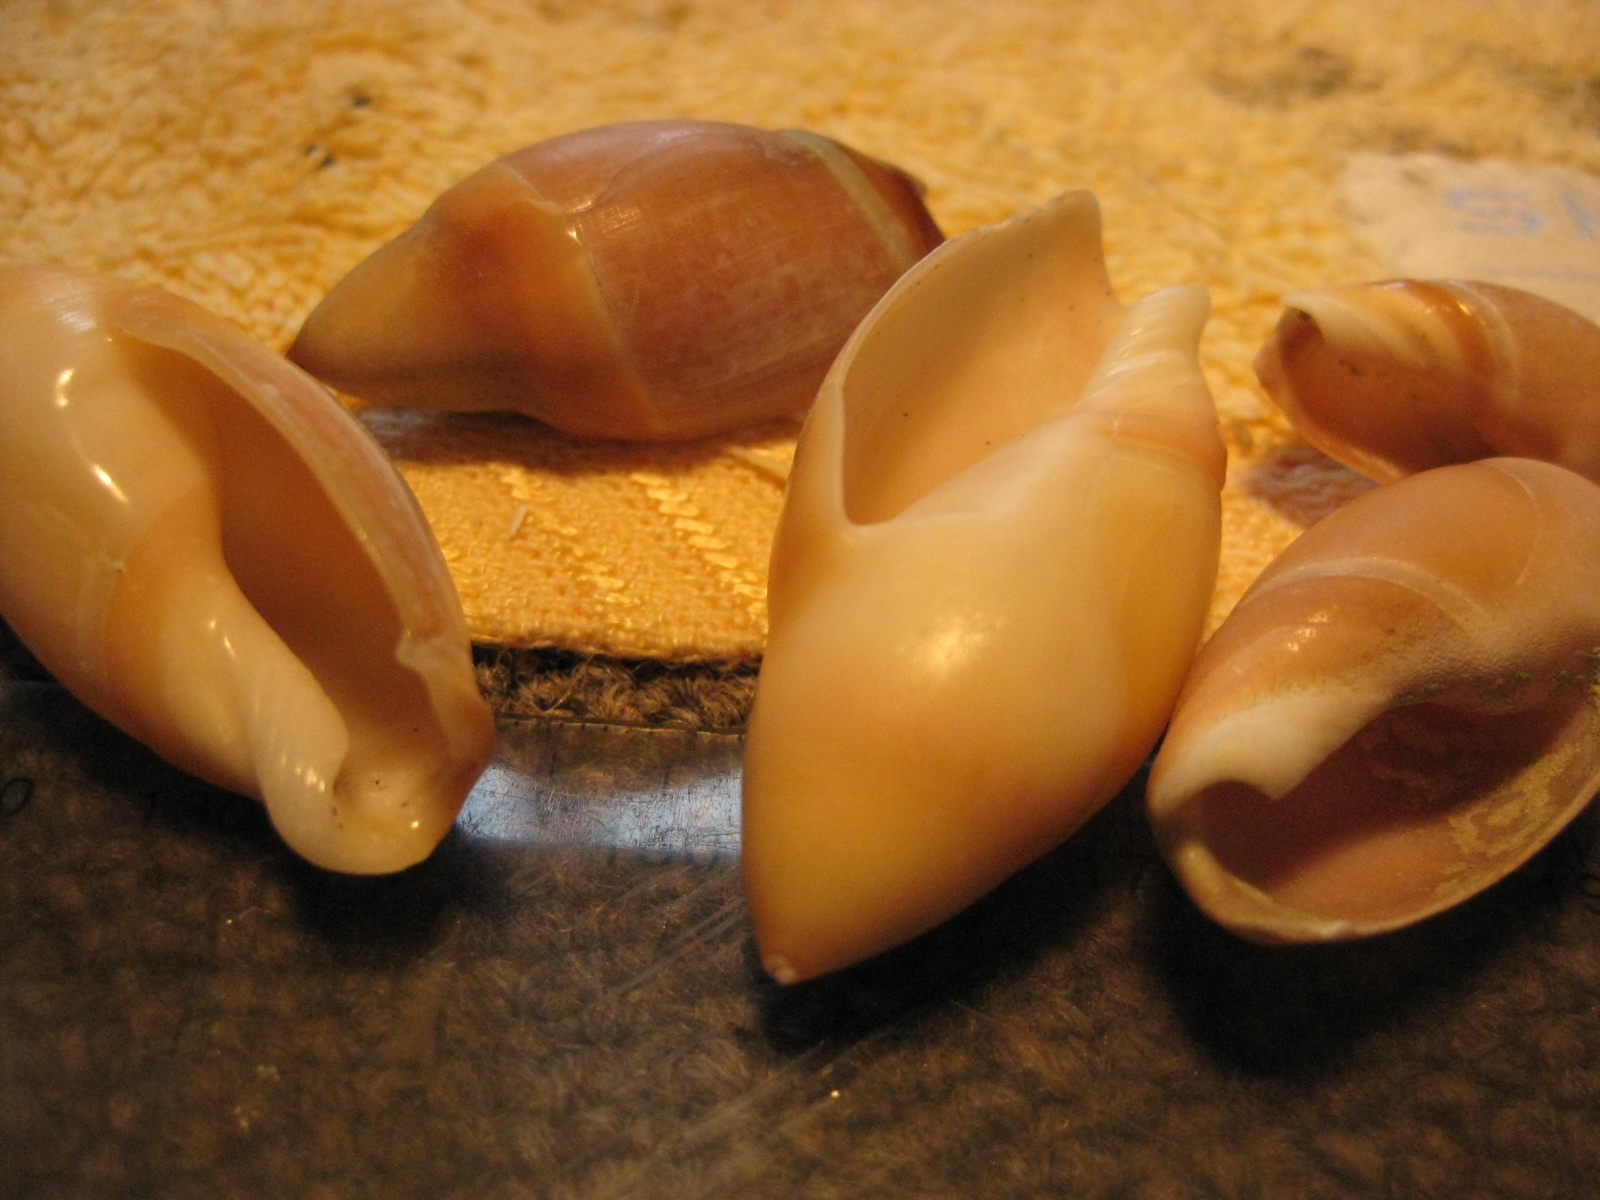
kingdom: Animalia
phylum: Mollusca
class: Gastropoda
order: Neogastropoda
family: Ancillariidae
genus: Amalda
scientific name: Amalda mucronata
